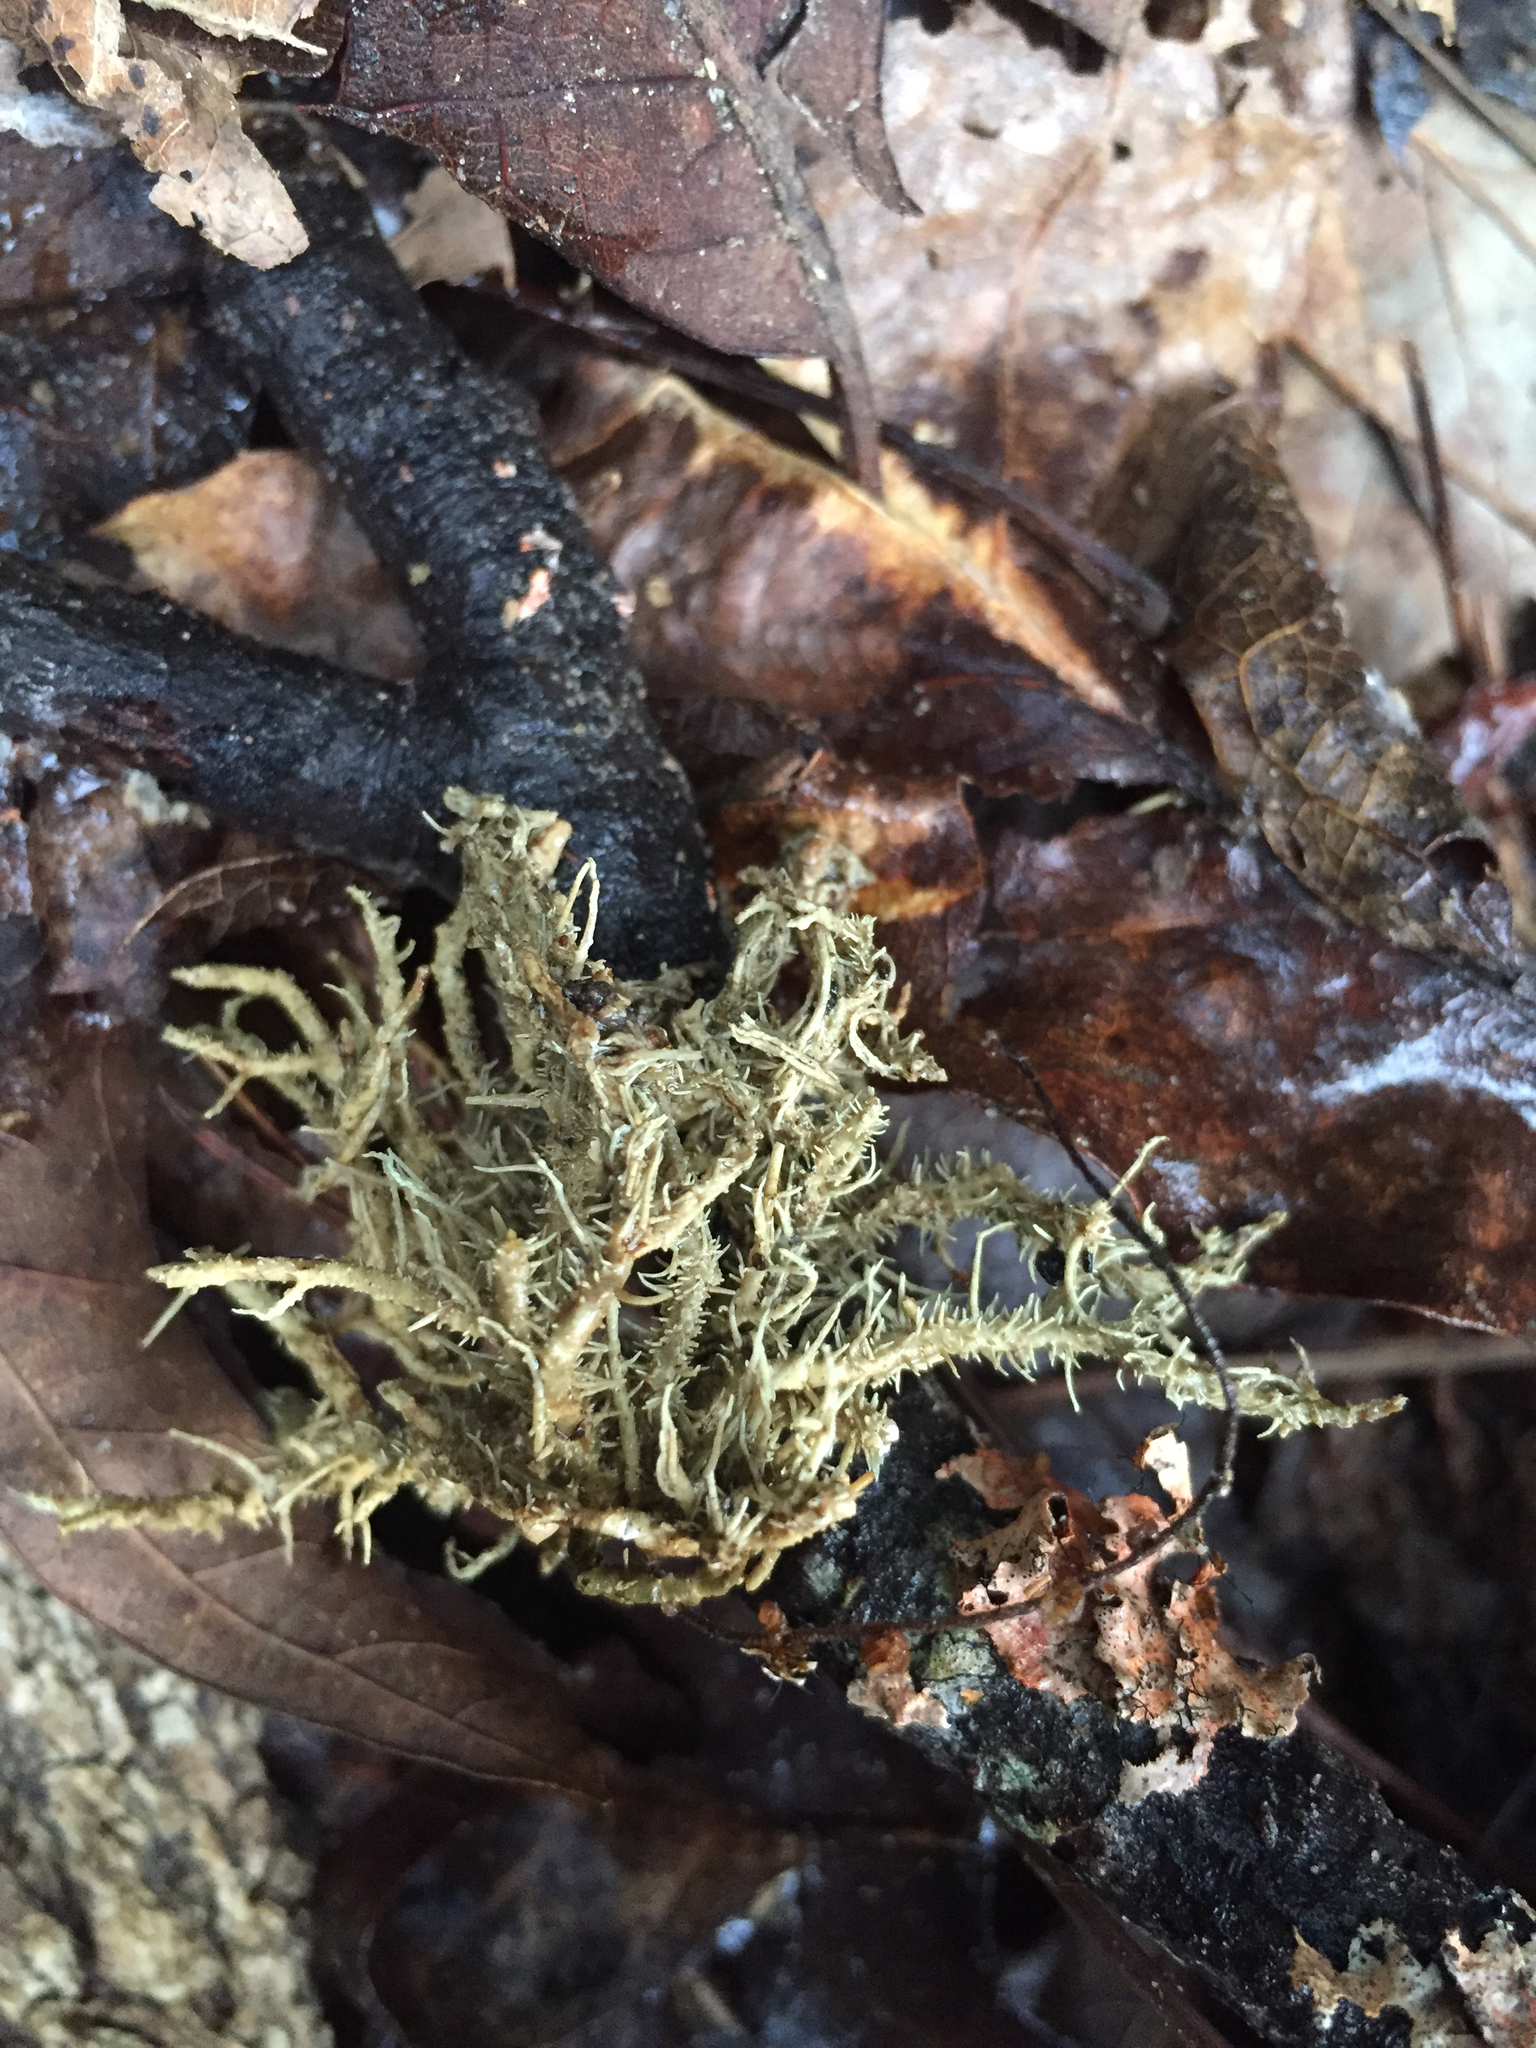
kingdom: Fungi
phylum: Ascomycota
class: Lecanoromycetes
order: Lecanorales
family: Parmeliaceae
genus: Usnea
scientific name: Usnea strigosa
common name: Bushy beard lichen
